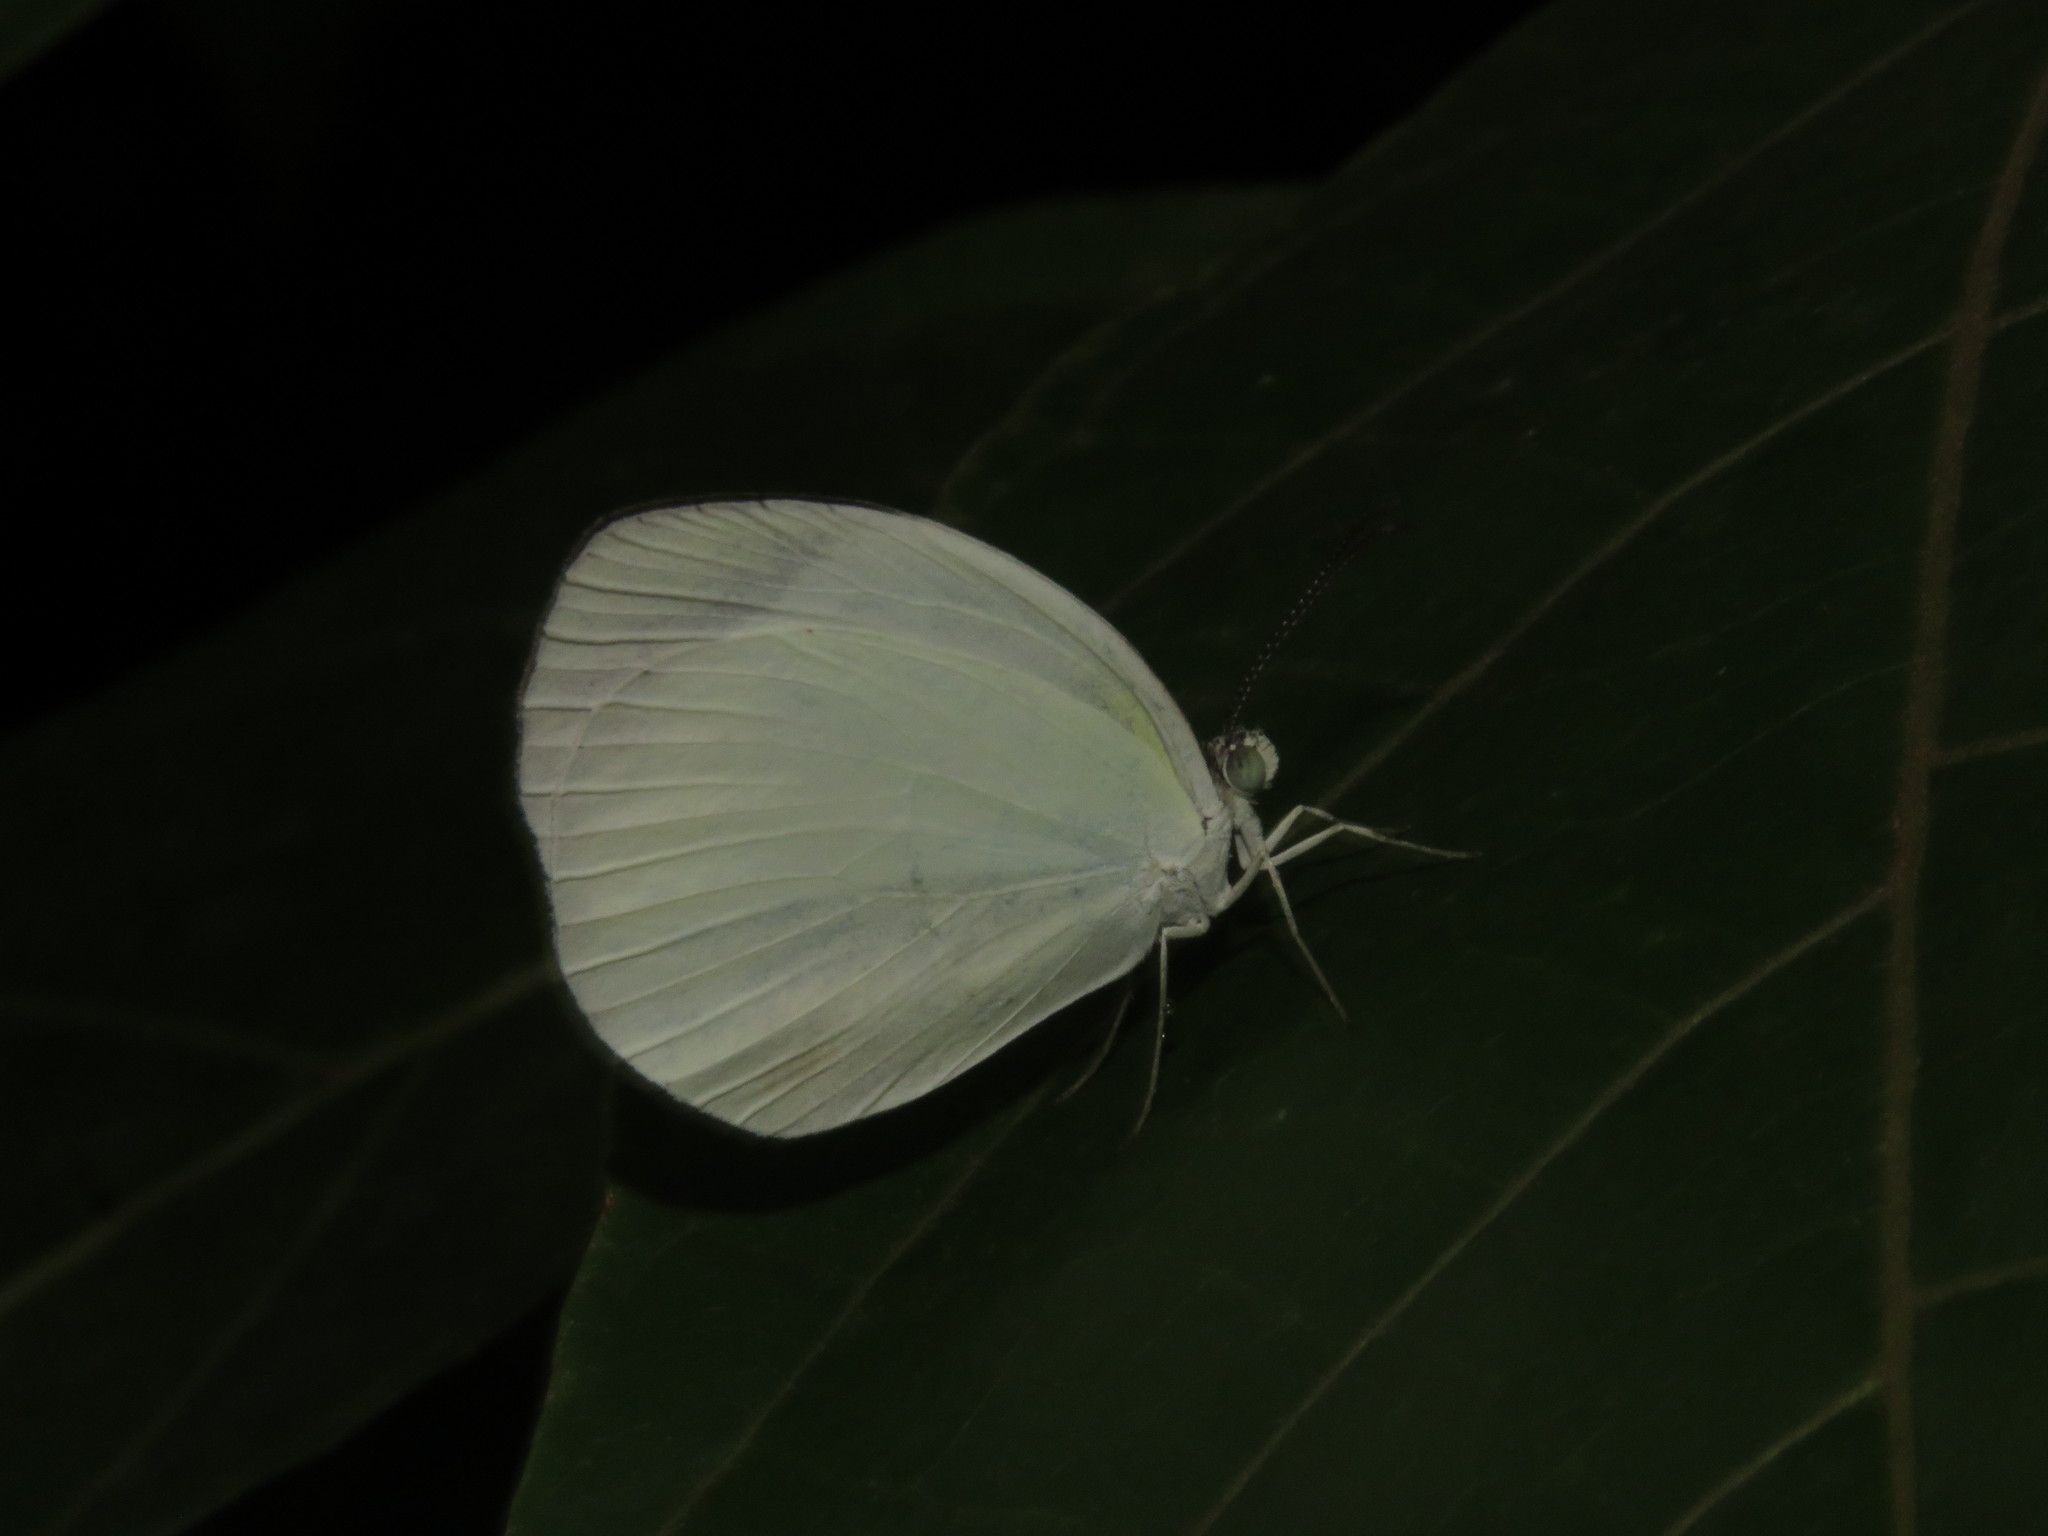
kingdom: Animalia
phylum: Arthropoda
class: Insecta
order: Lepidoptera
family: Pieridae
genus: Abaeis
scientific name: Abaeis albula
